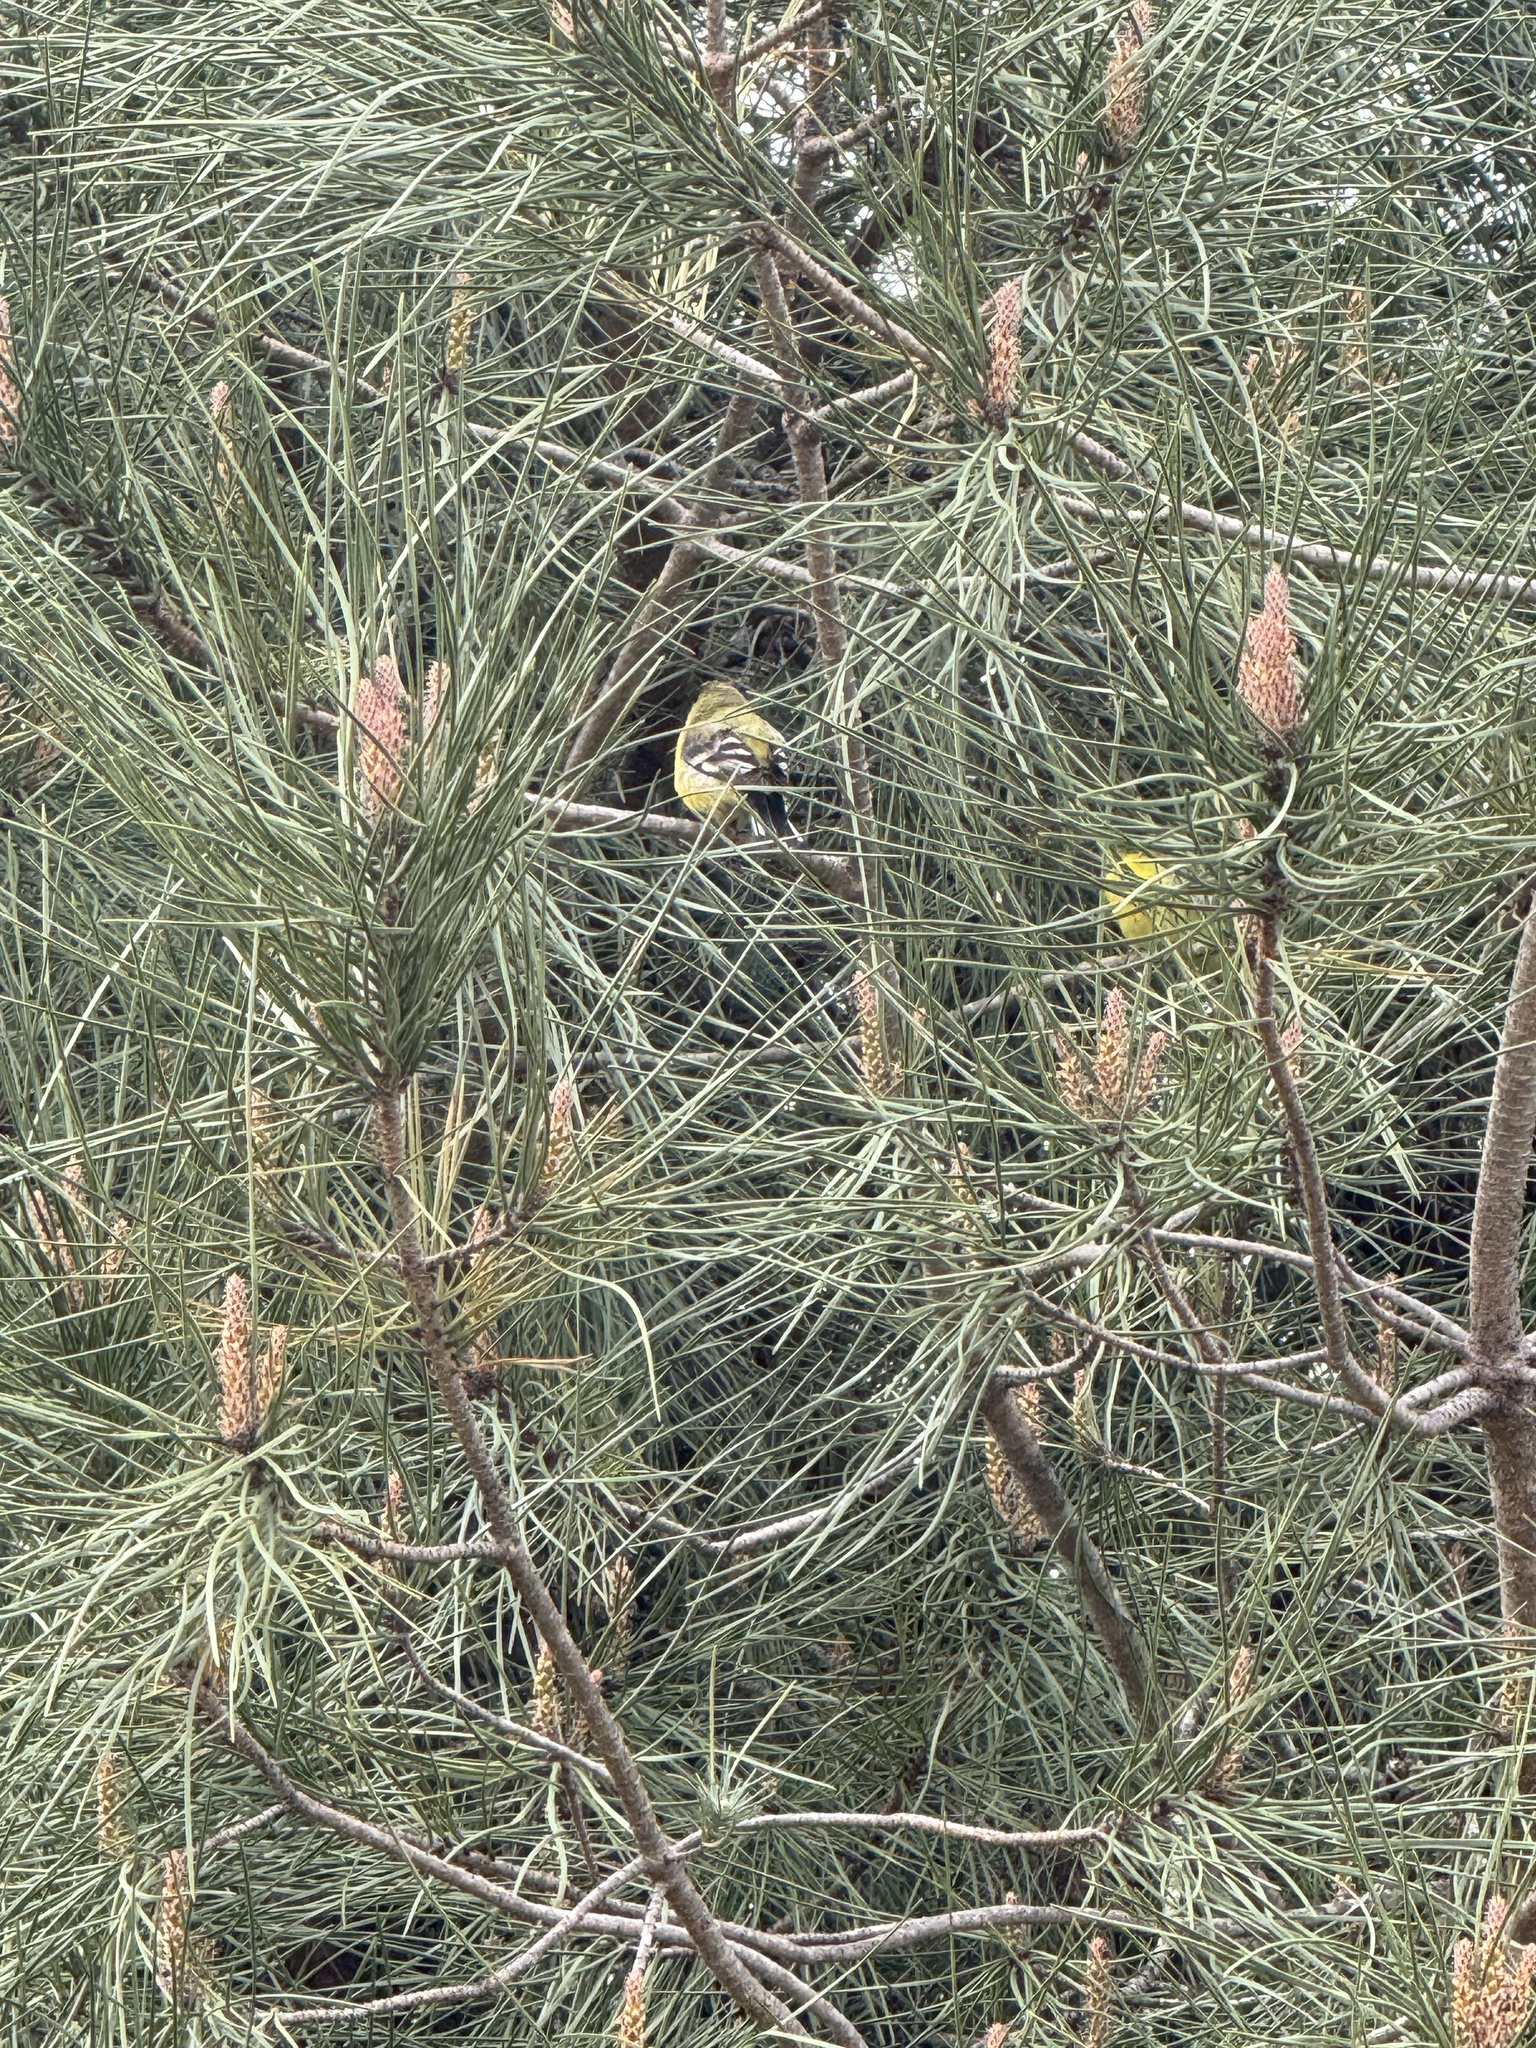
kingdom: Animalia
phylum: Chordata
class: Aves
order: Passeriformes
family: Fringillidae
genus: Spinus
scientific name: Spinus psaltria
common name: Lesser goldfinch
